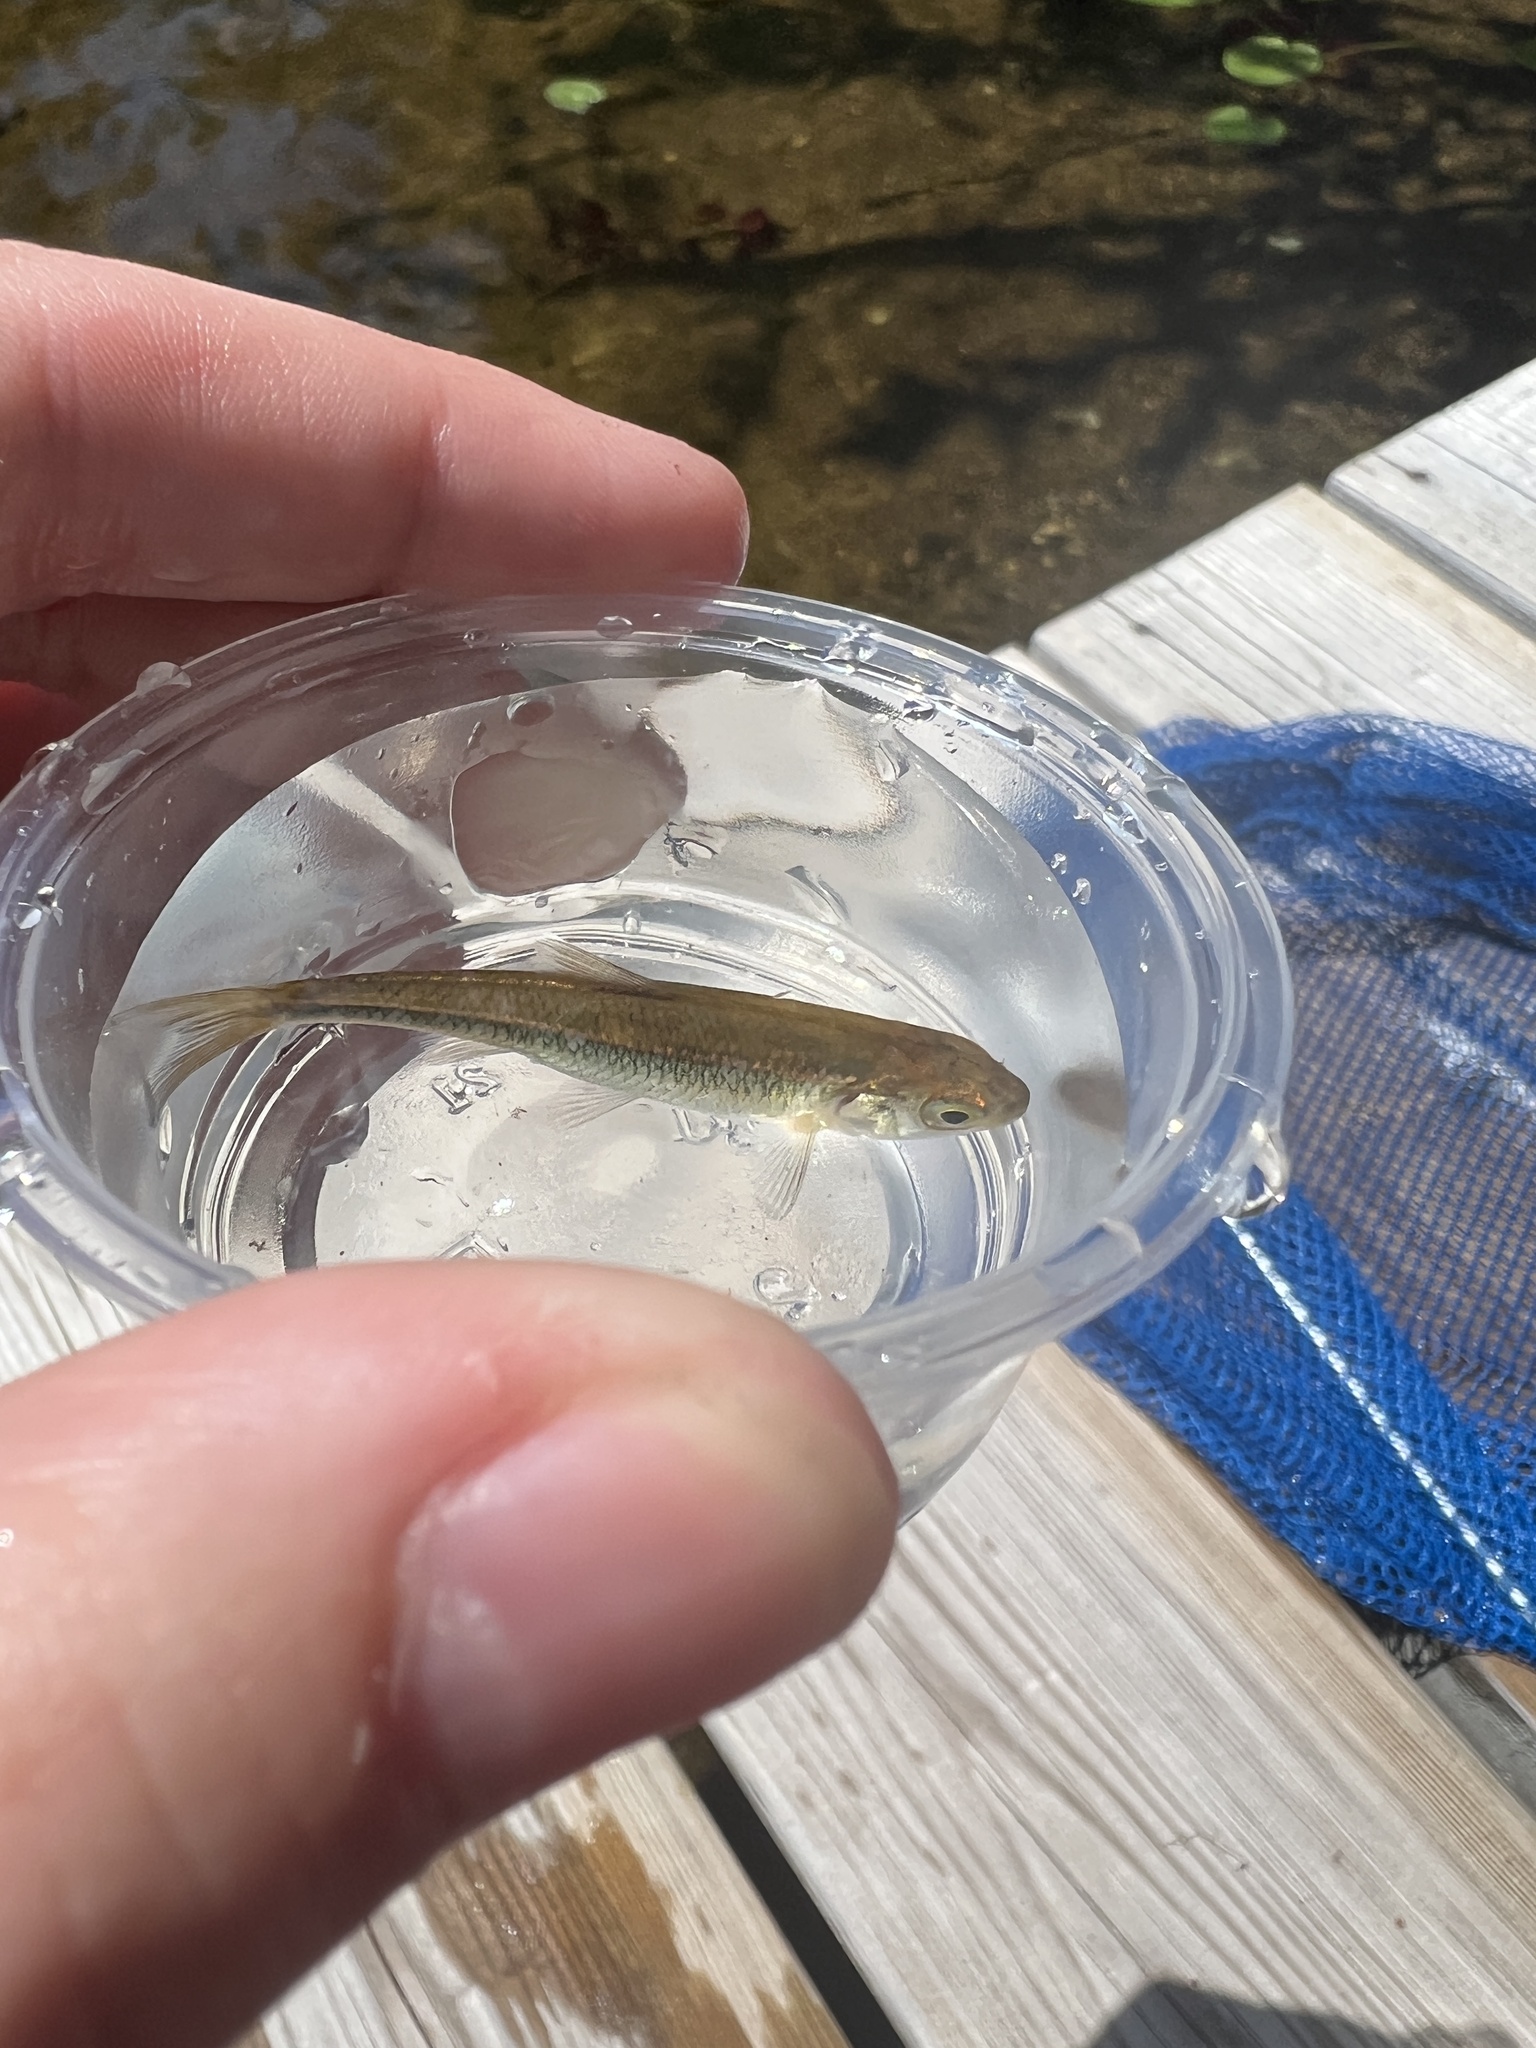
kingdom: Animalia
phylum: Chordata
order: Cypriniformes
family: Cyprinidae
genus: Luxilus
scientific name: Luxilus cornutus
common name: Common shiner
